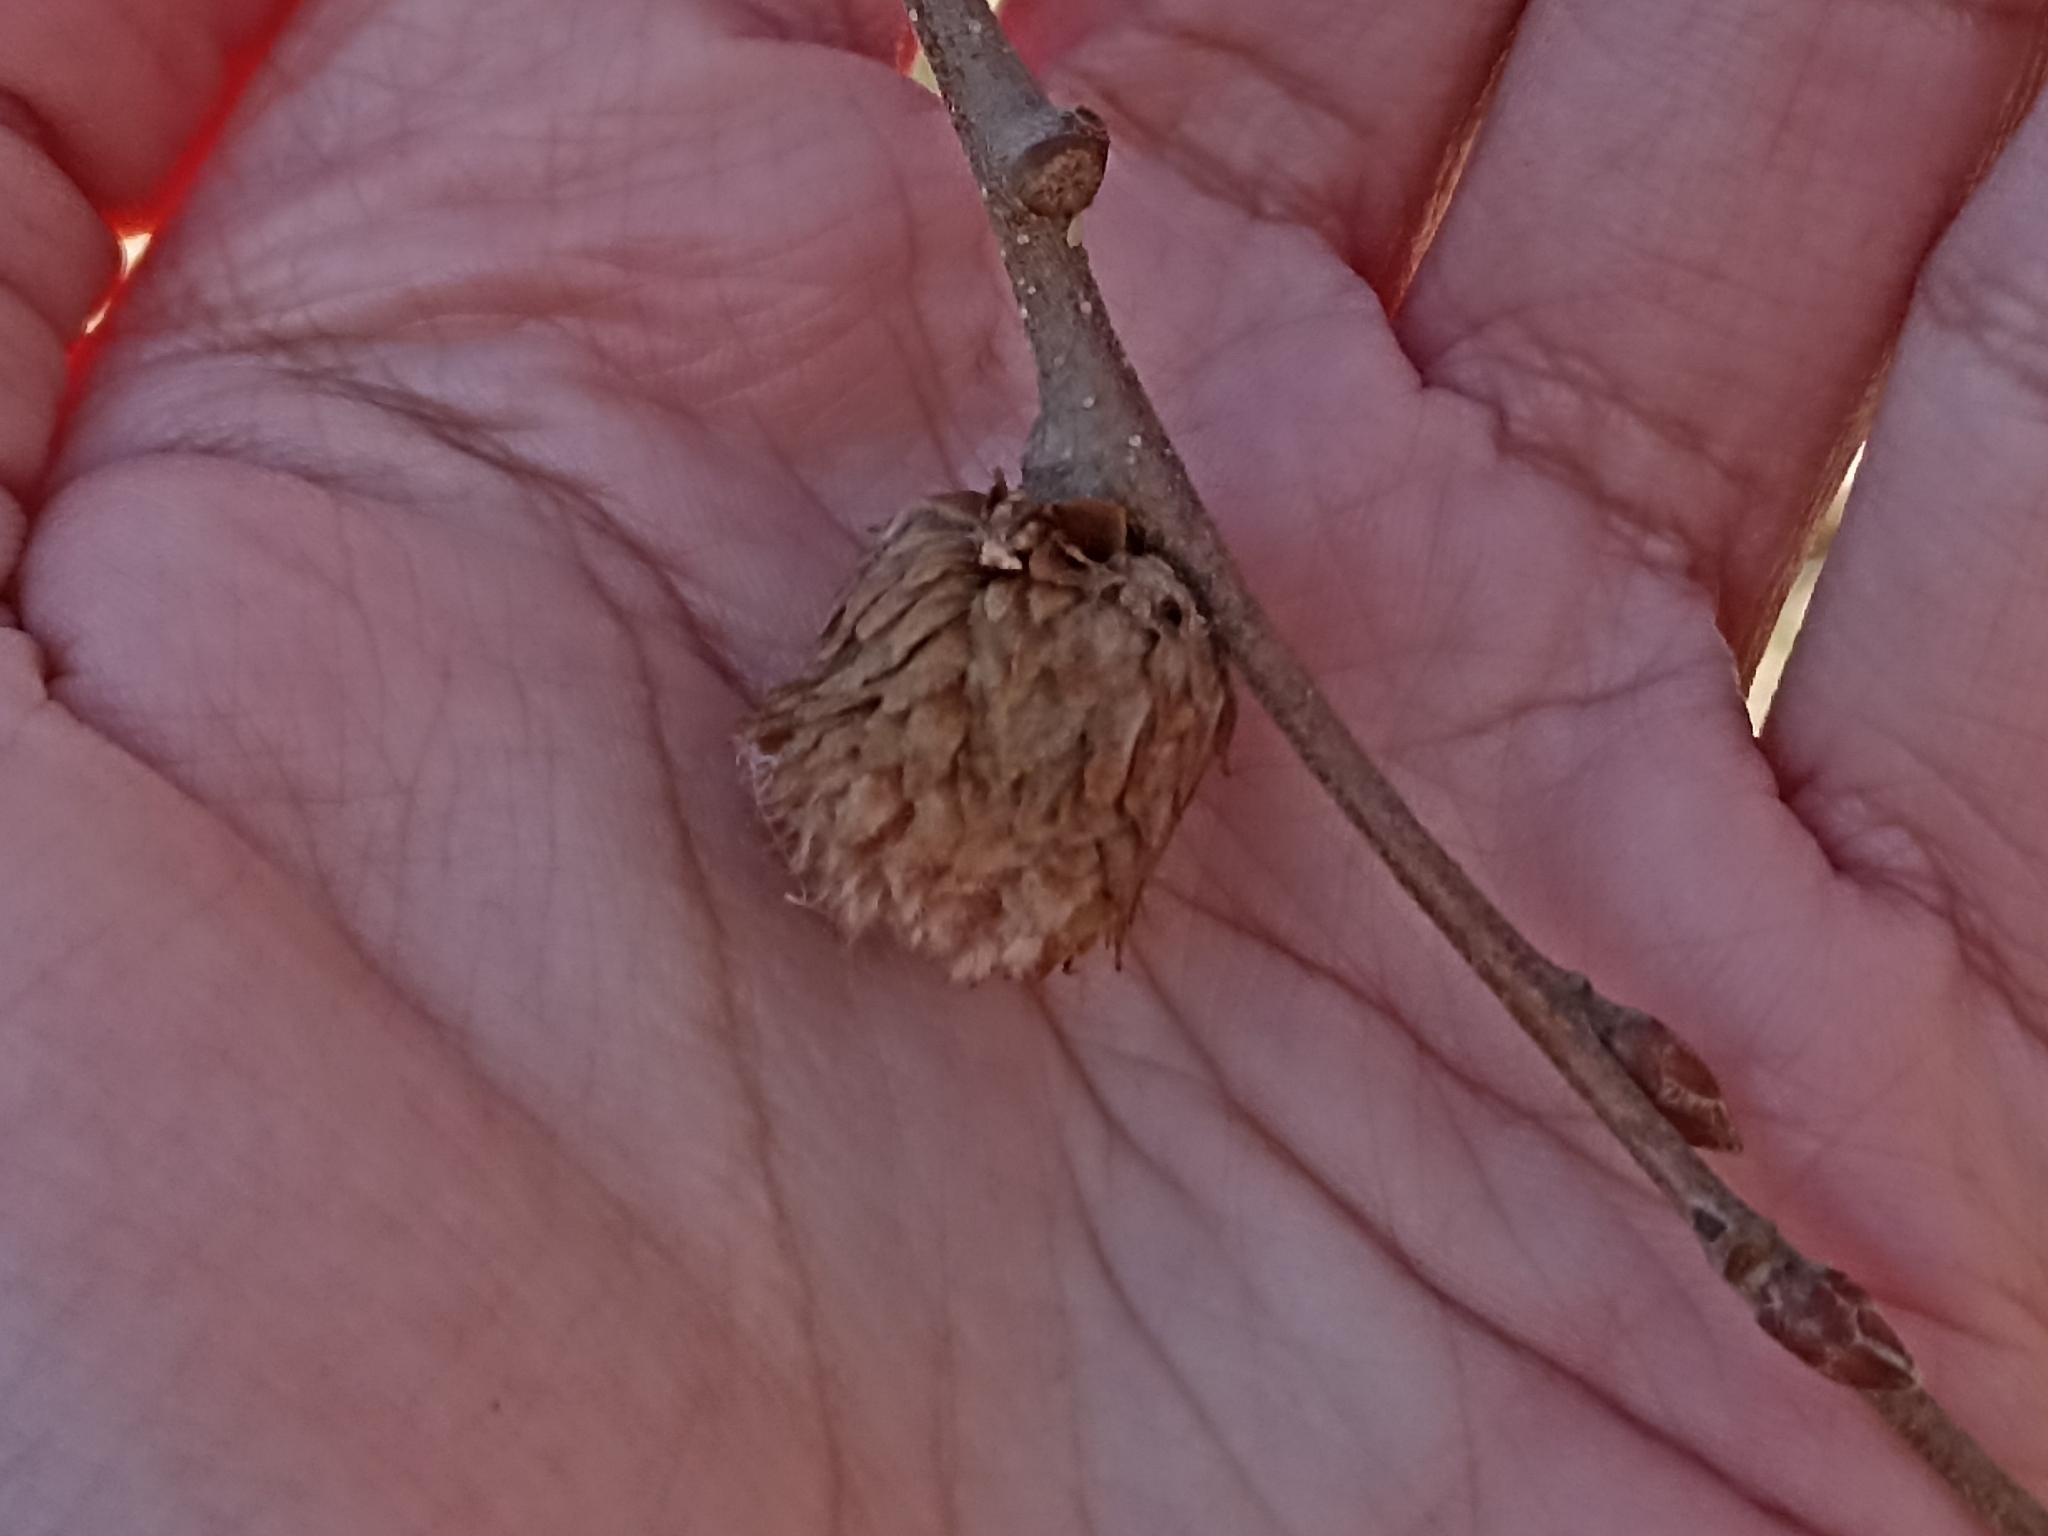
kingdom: Animalia
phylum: Arthropoda
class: Insecta
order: Hymenoptera
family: Cynipidae
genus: Andricus
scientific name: Andricus foecundatrix
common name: Artichoke gall
